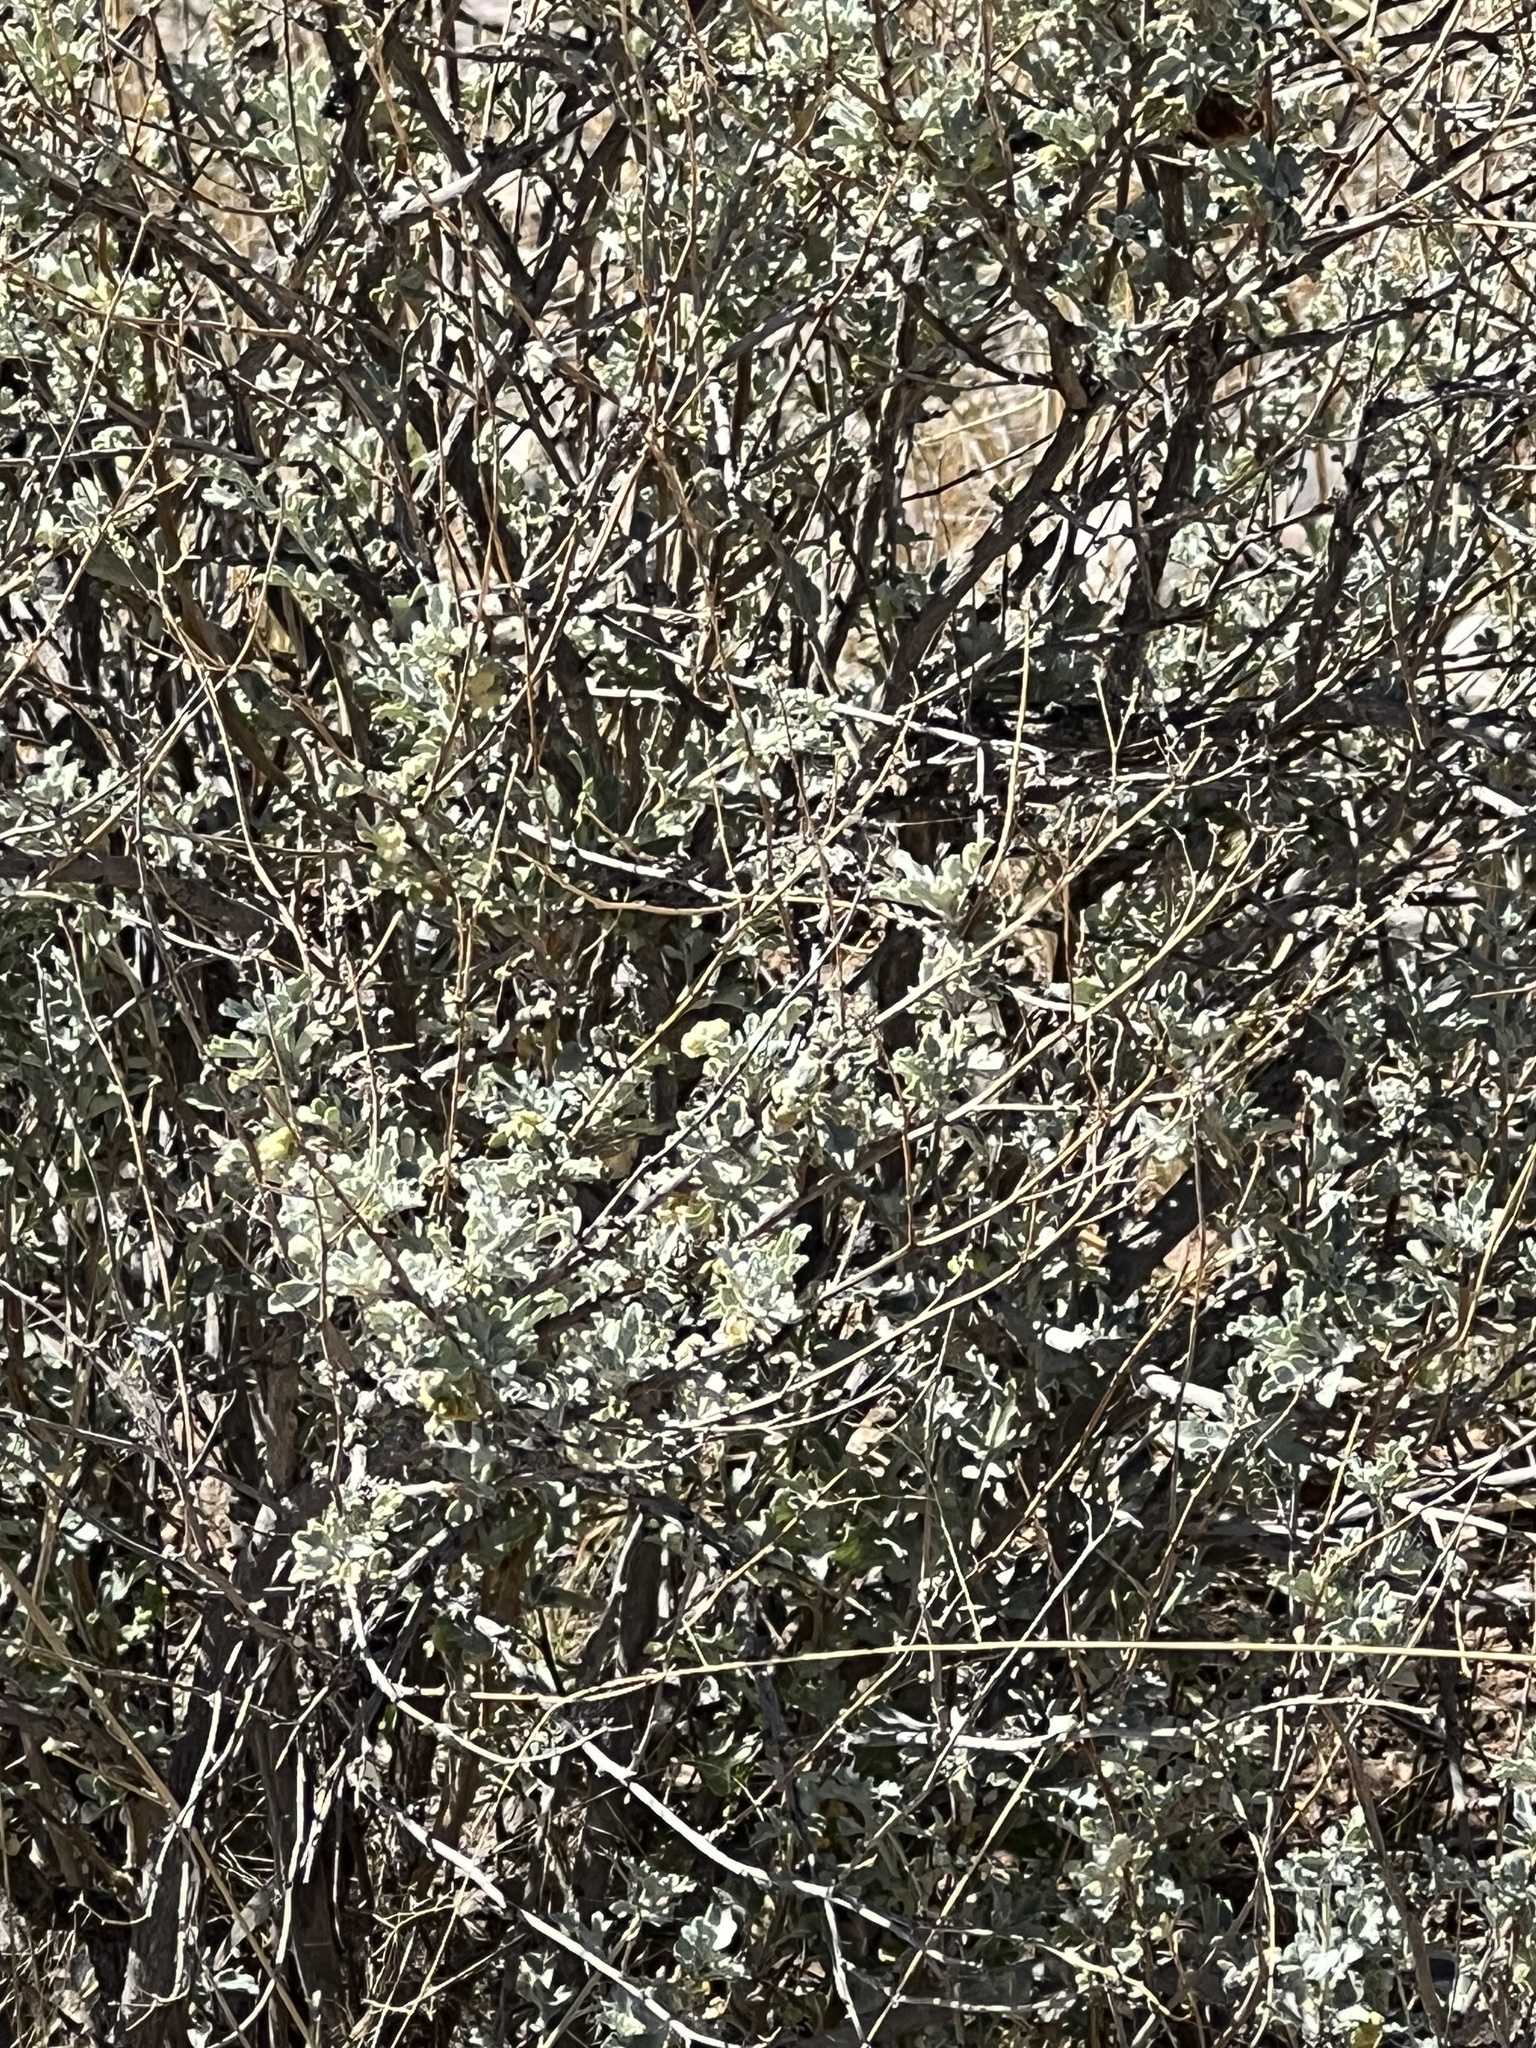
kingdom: Plantae
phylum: Tracheophyta
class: Magnoliopsida
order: Asterales
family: Asteraceae
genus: Parthenium
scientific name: Parthenium incanum
